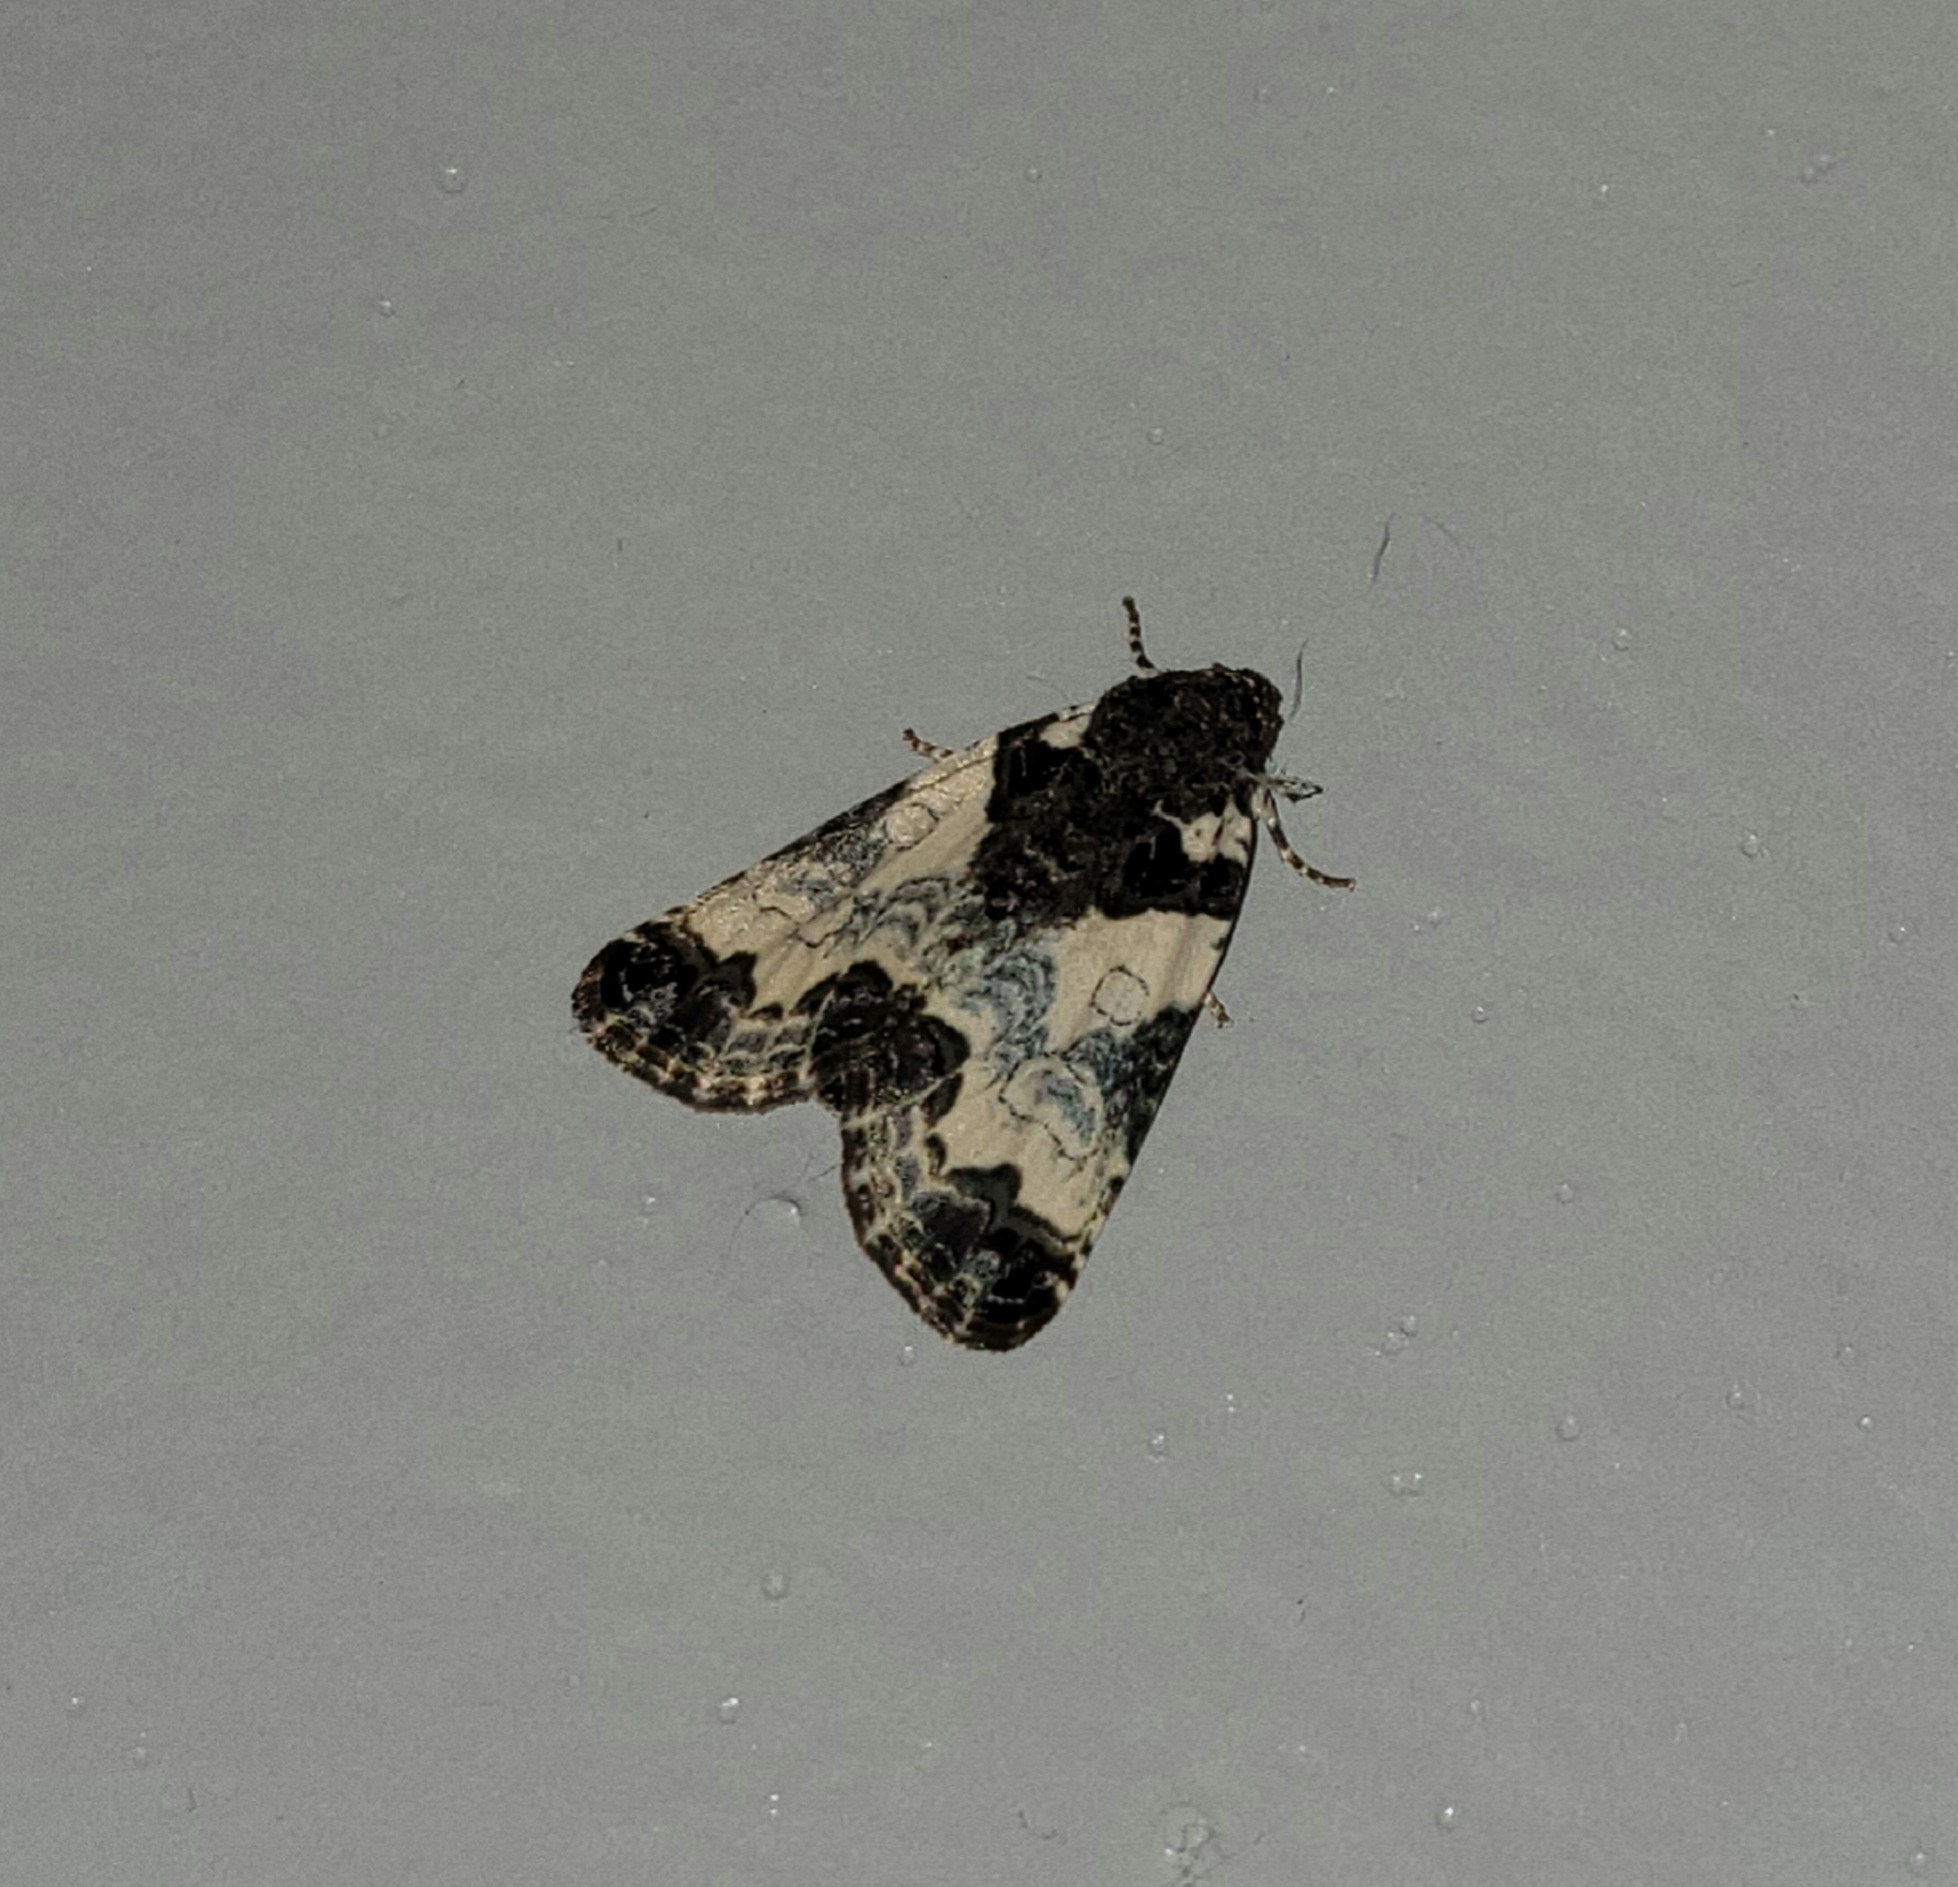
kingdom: Animalia
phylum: Arthropoda
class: Insecta
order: Lepidoptera
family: Noctuidae
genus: Cerma
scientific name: Cerma cerintha
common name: Tufted bird-dropping moth
